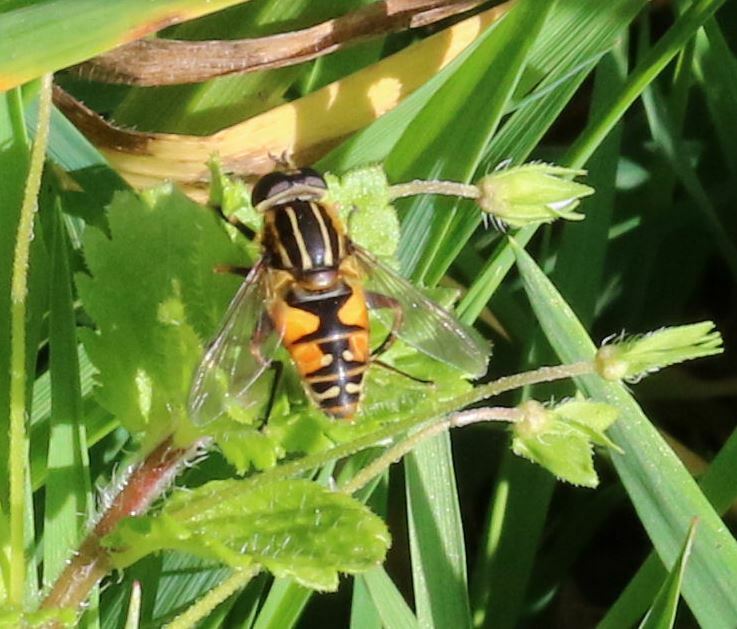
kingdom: Animalia
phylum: Arthropoda
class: Insecta
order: Diptera
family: Syrphidae
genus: Helophilus
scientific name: Helophilus pendulus
